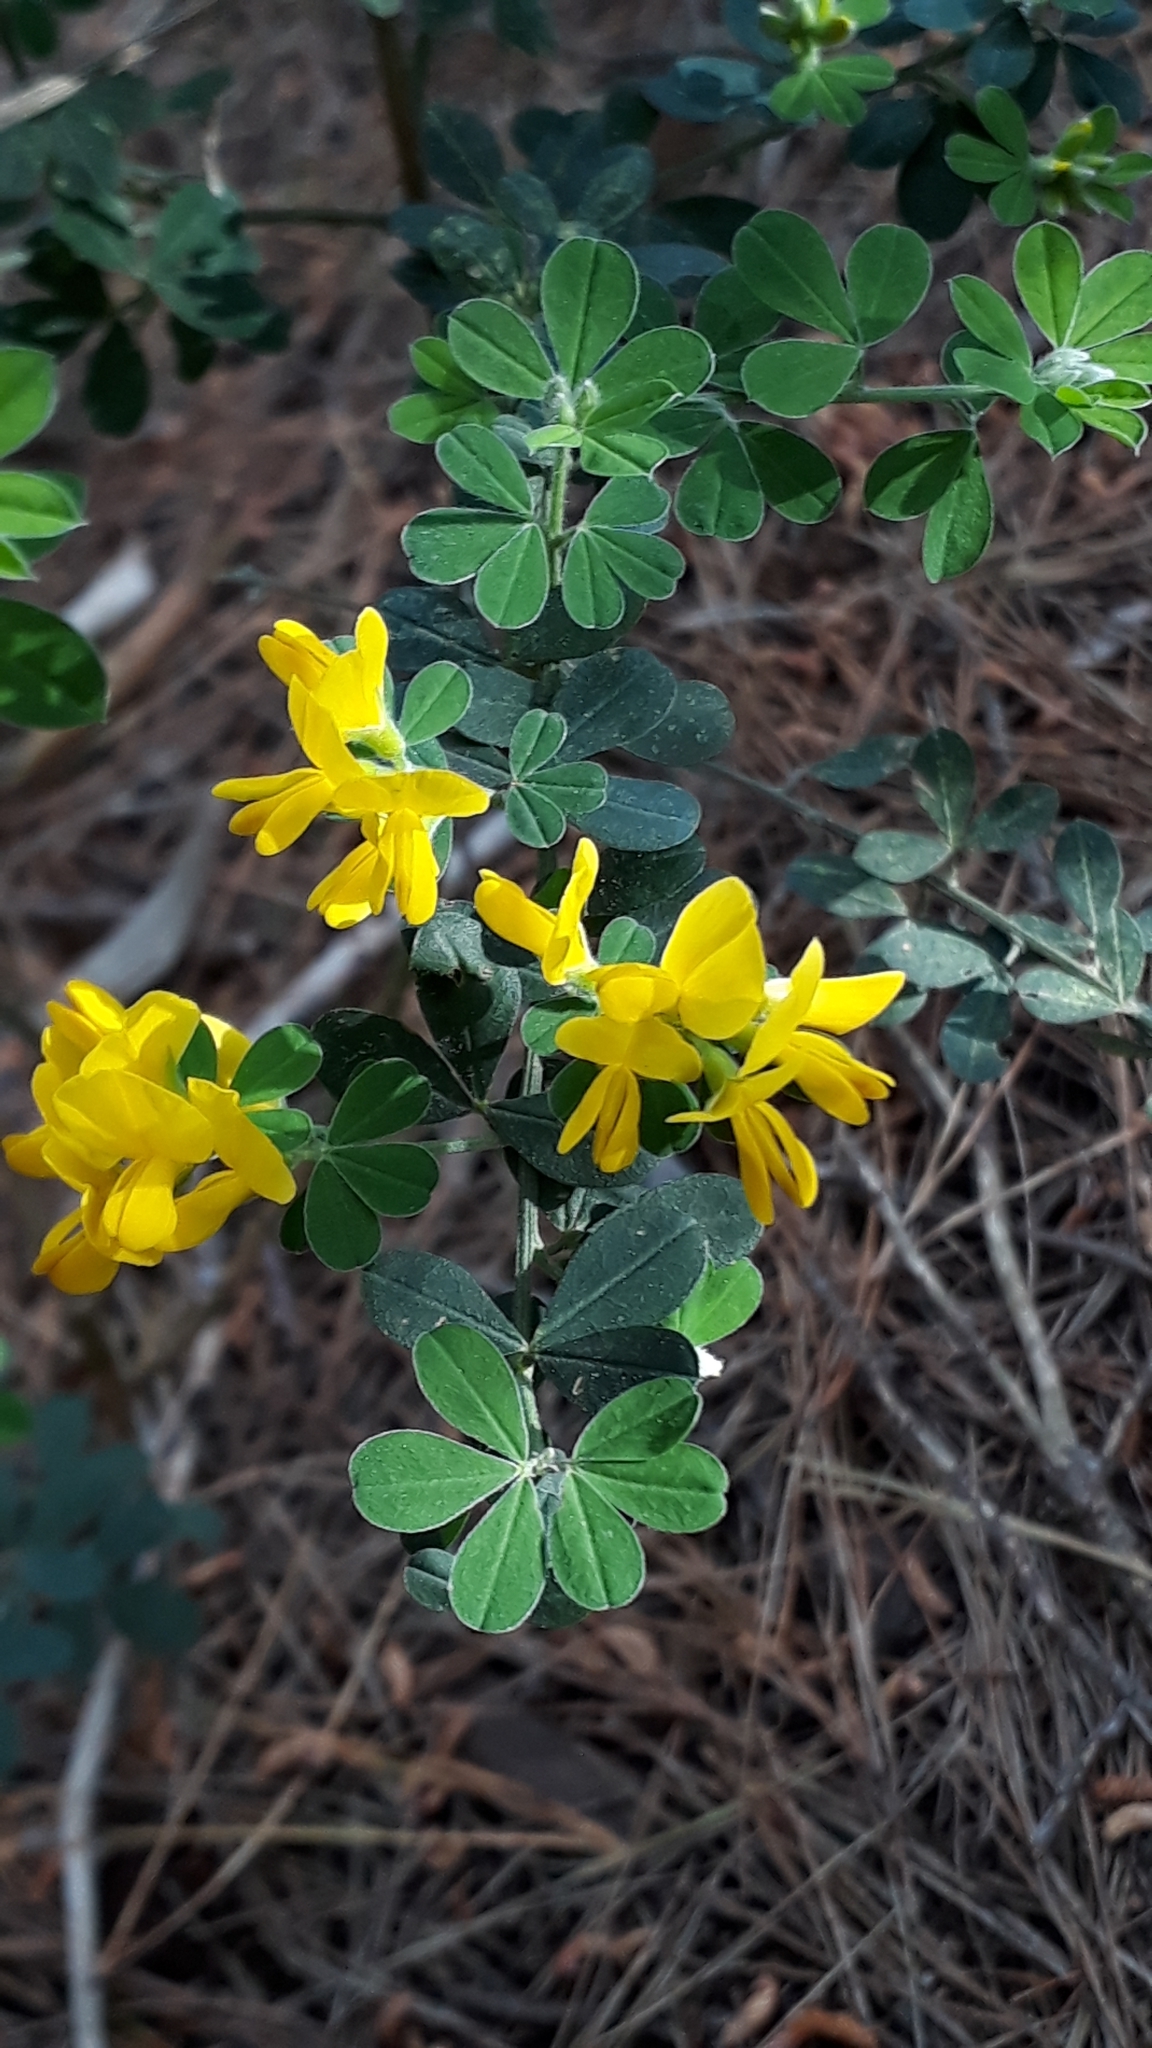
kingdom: Plantae
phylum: Tracheophyta
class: Magnoliopsida
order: Fabales
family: Fabaceae
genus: Genista
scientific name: Genista monspessulana
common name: Montpellier broom
